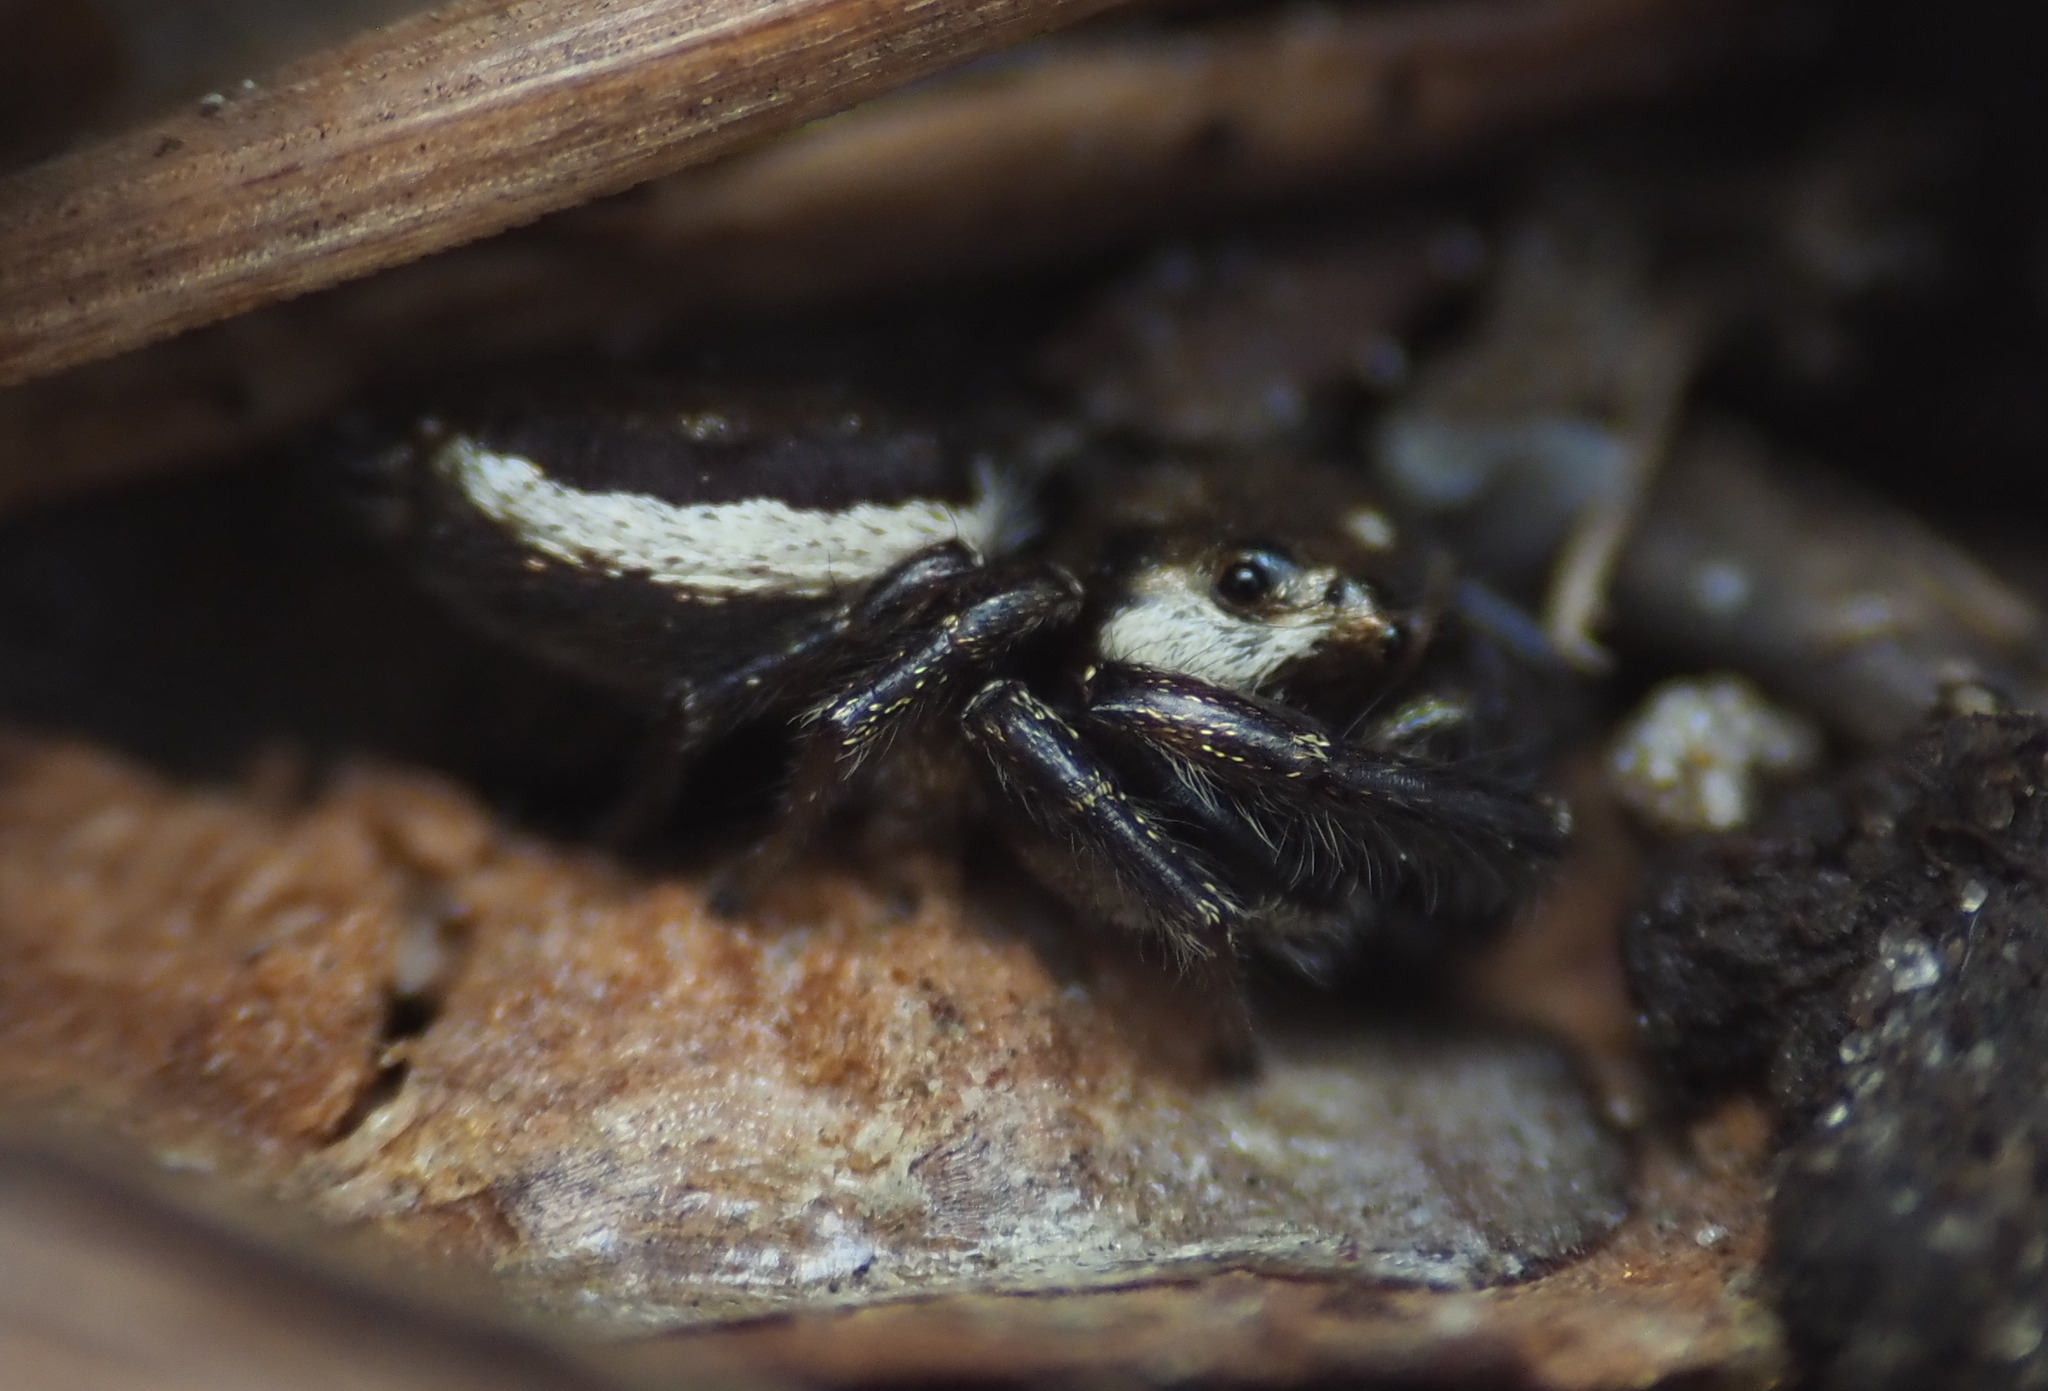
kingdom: Animalia
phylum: Arthropoda
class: Arachnida
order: Araneae
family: Salticidae
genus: Eris
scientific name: Eris militaris
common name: Bronze jumper
